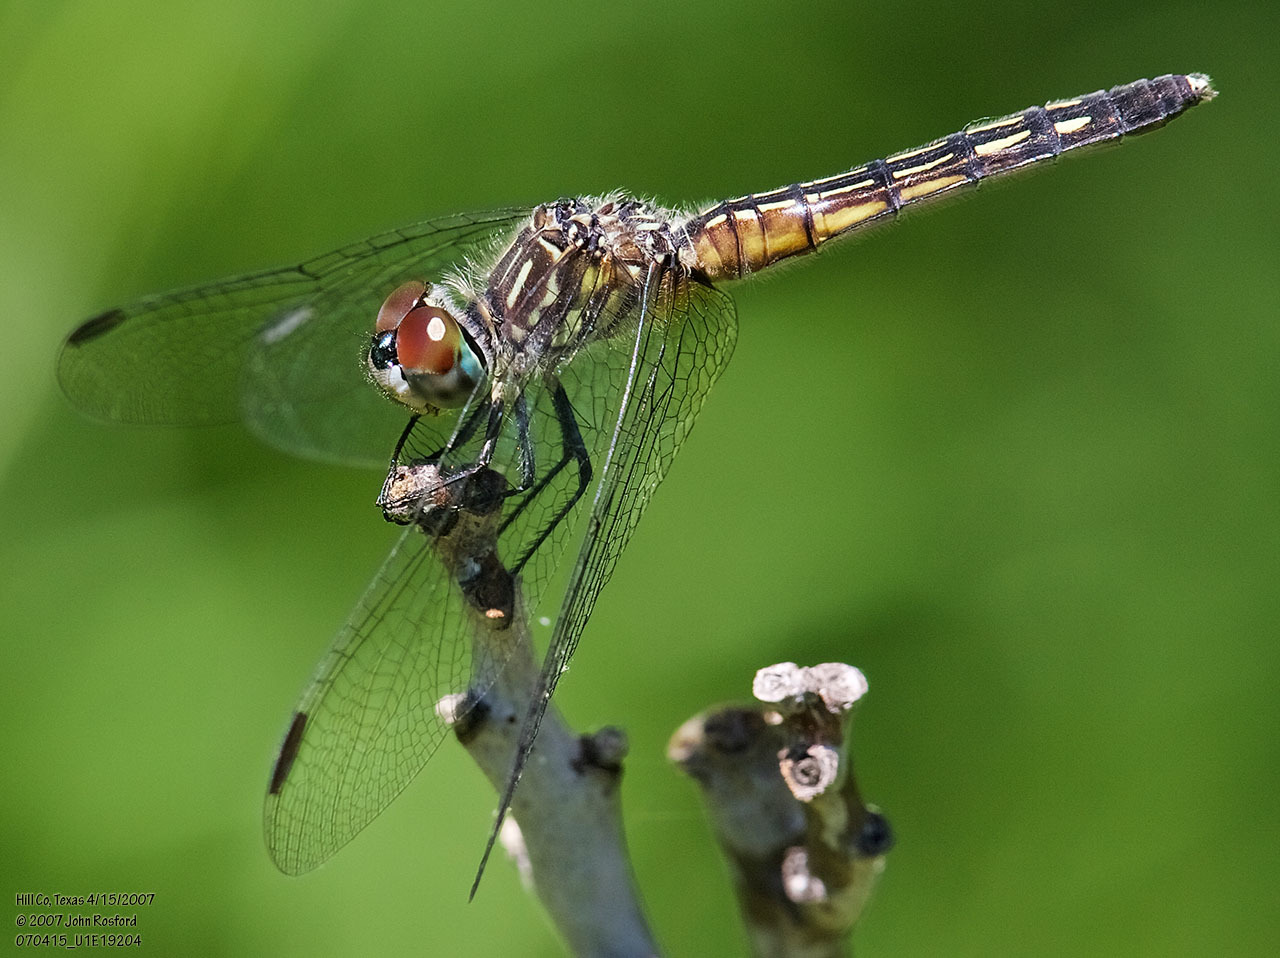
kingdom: Animalia
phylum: Arthropoda
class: Insecta
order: Odonata
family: Libellulidae
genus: Pachydiplax
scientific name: Pachydiplax longipennis
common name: Blue dasher
